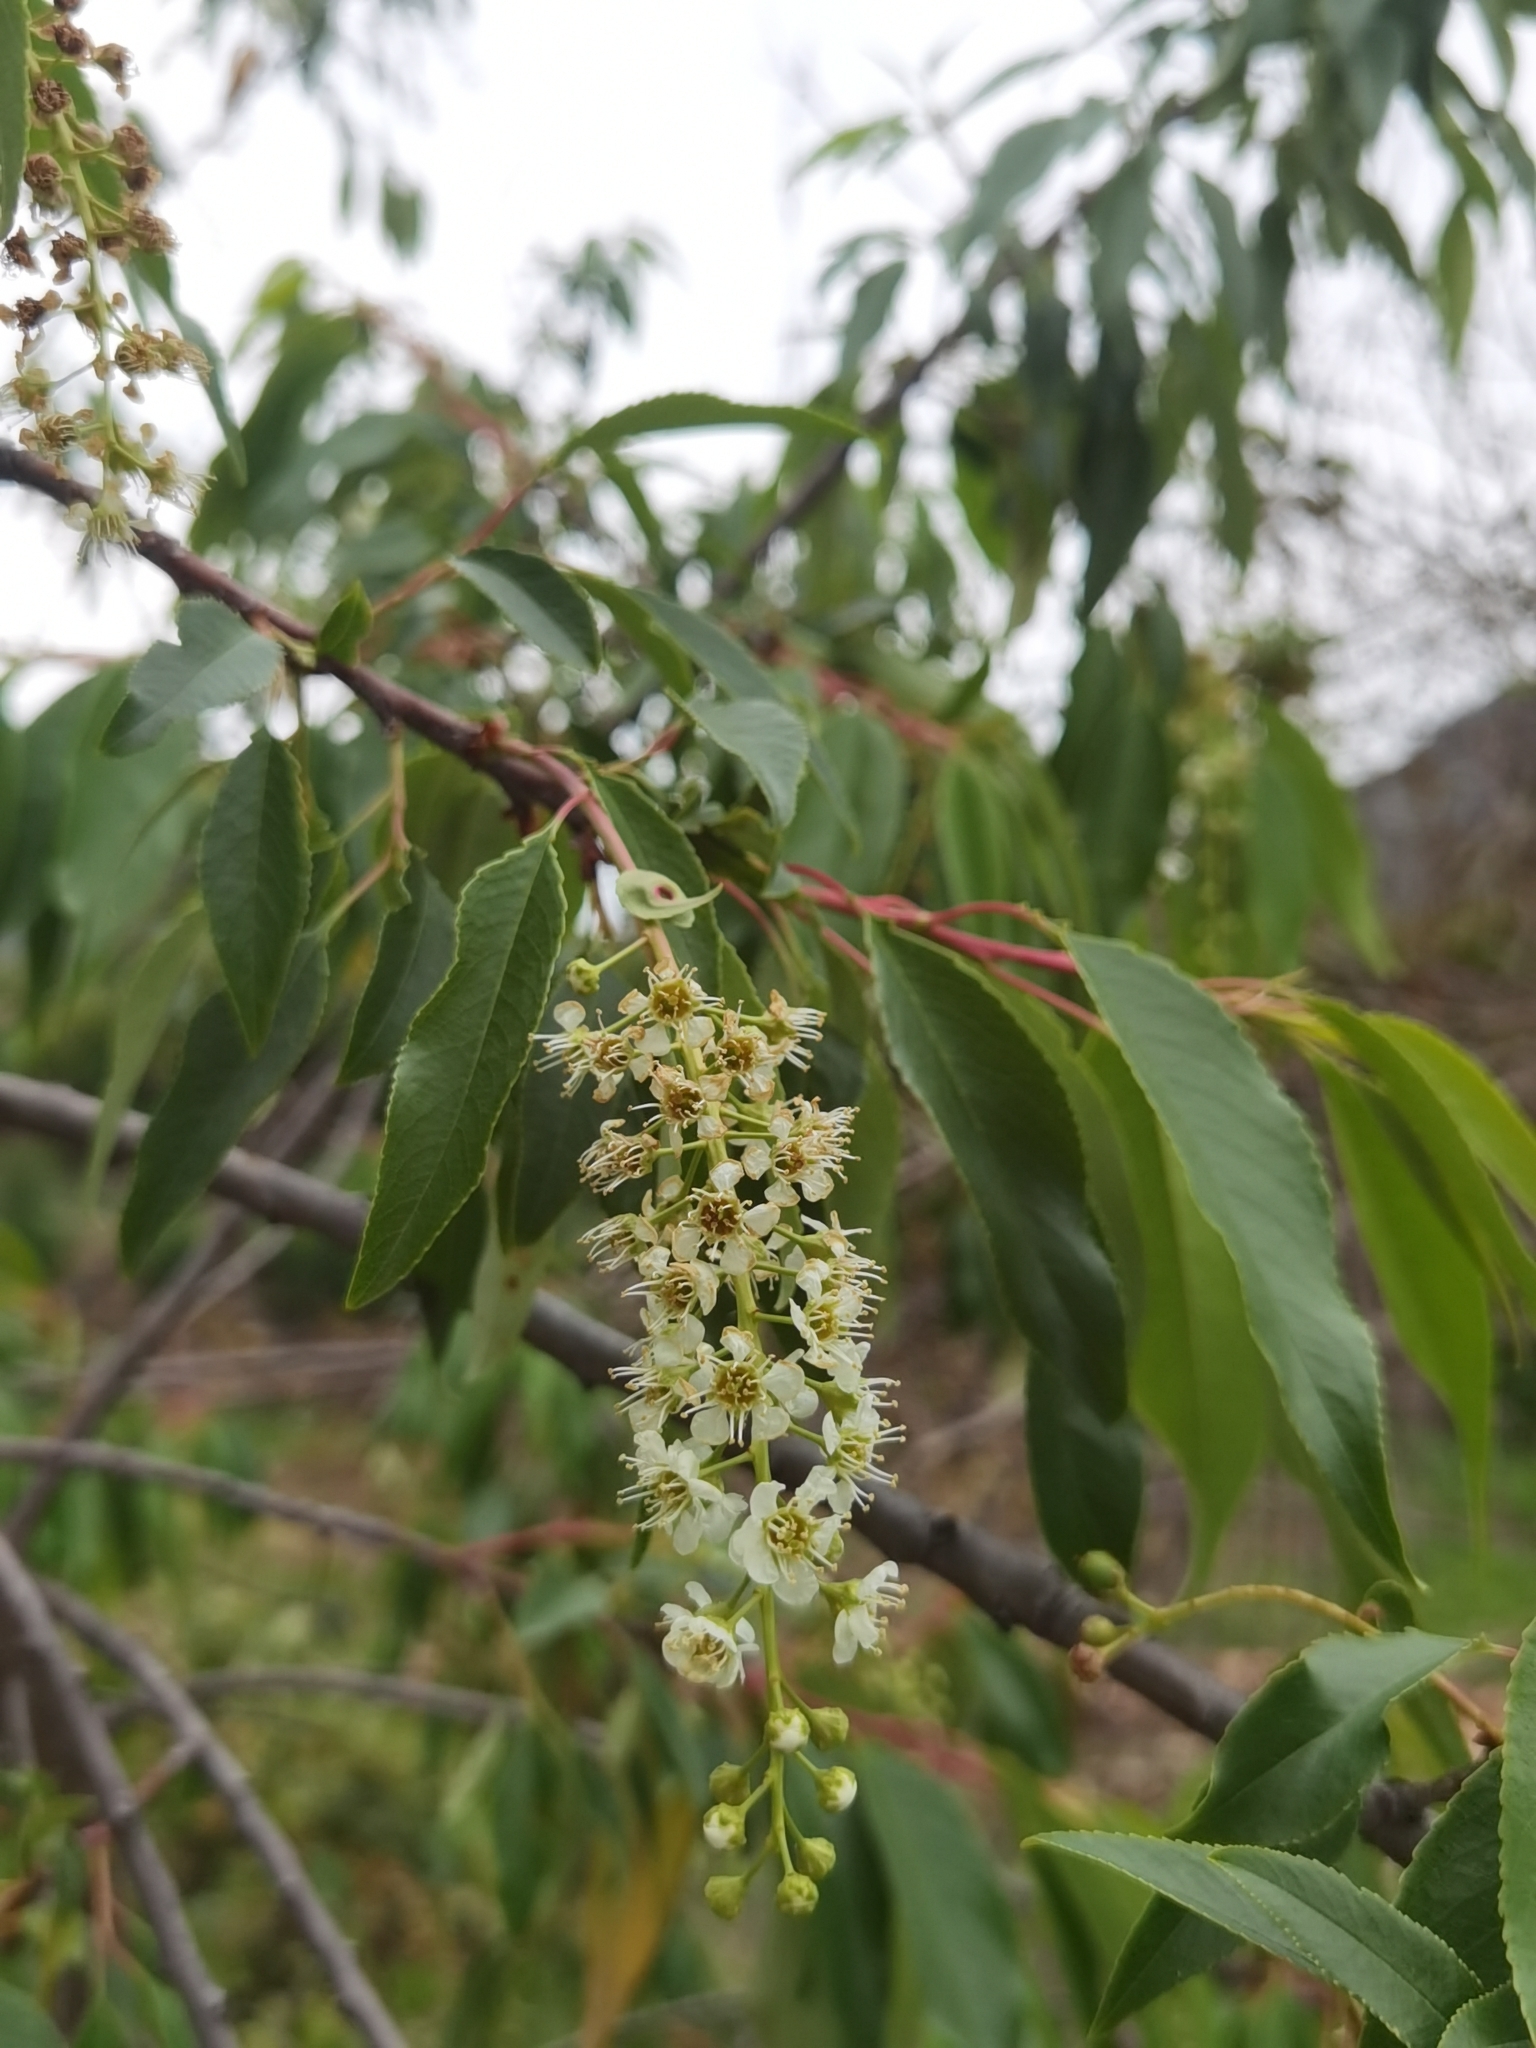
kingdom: Plantae
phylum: Tracheophyta
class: Magnoliopsida
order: Rosales
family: Rosaceae
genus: Prunus
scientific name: Prunus serotina
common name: Black cherry
